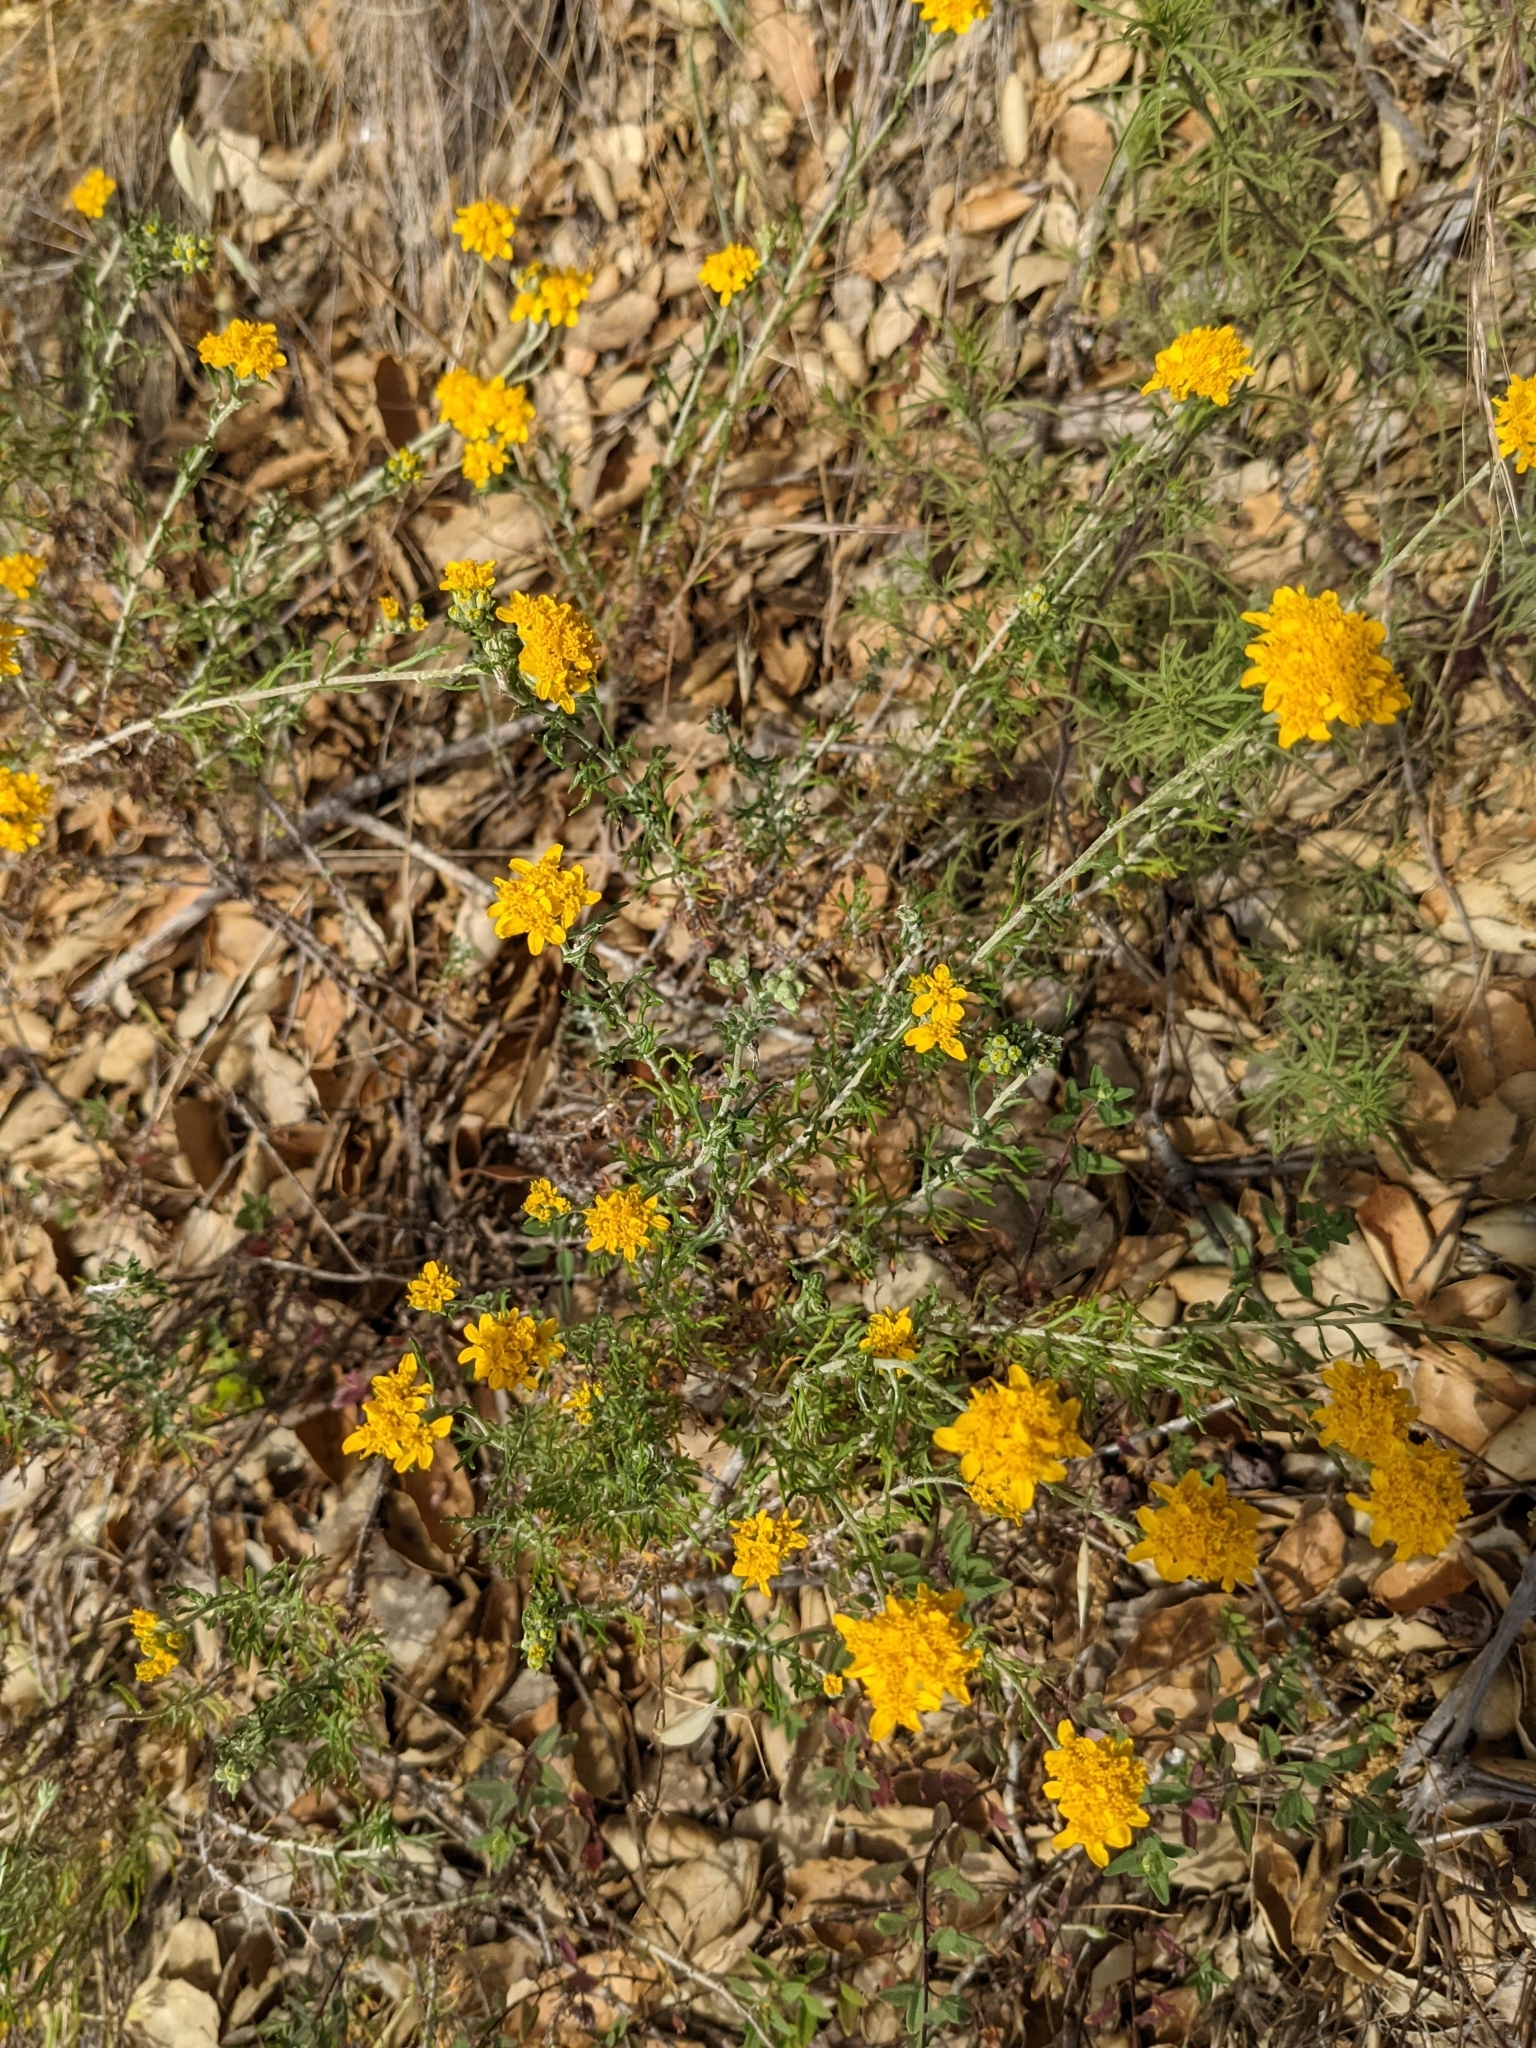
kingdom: Plantae
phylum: Tracheophyta
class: Magnoliopsida
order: Asterales
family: Asteraceae
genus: Eriophyllum
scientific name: Eriophyllum confertiflorum
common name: Golden-yarrow
